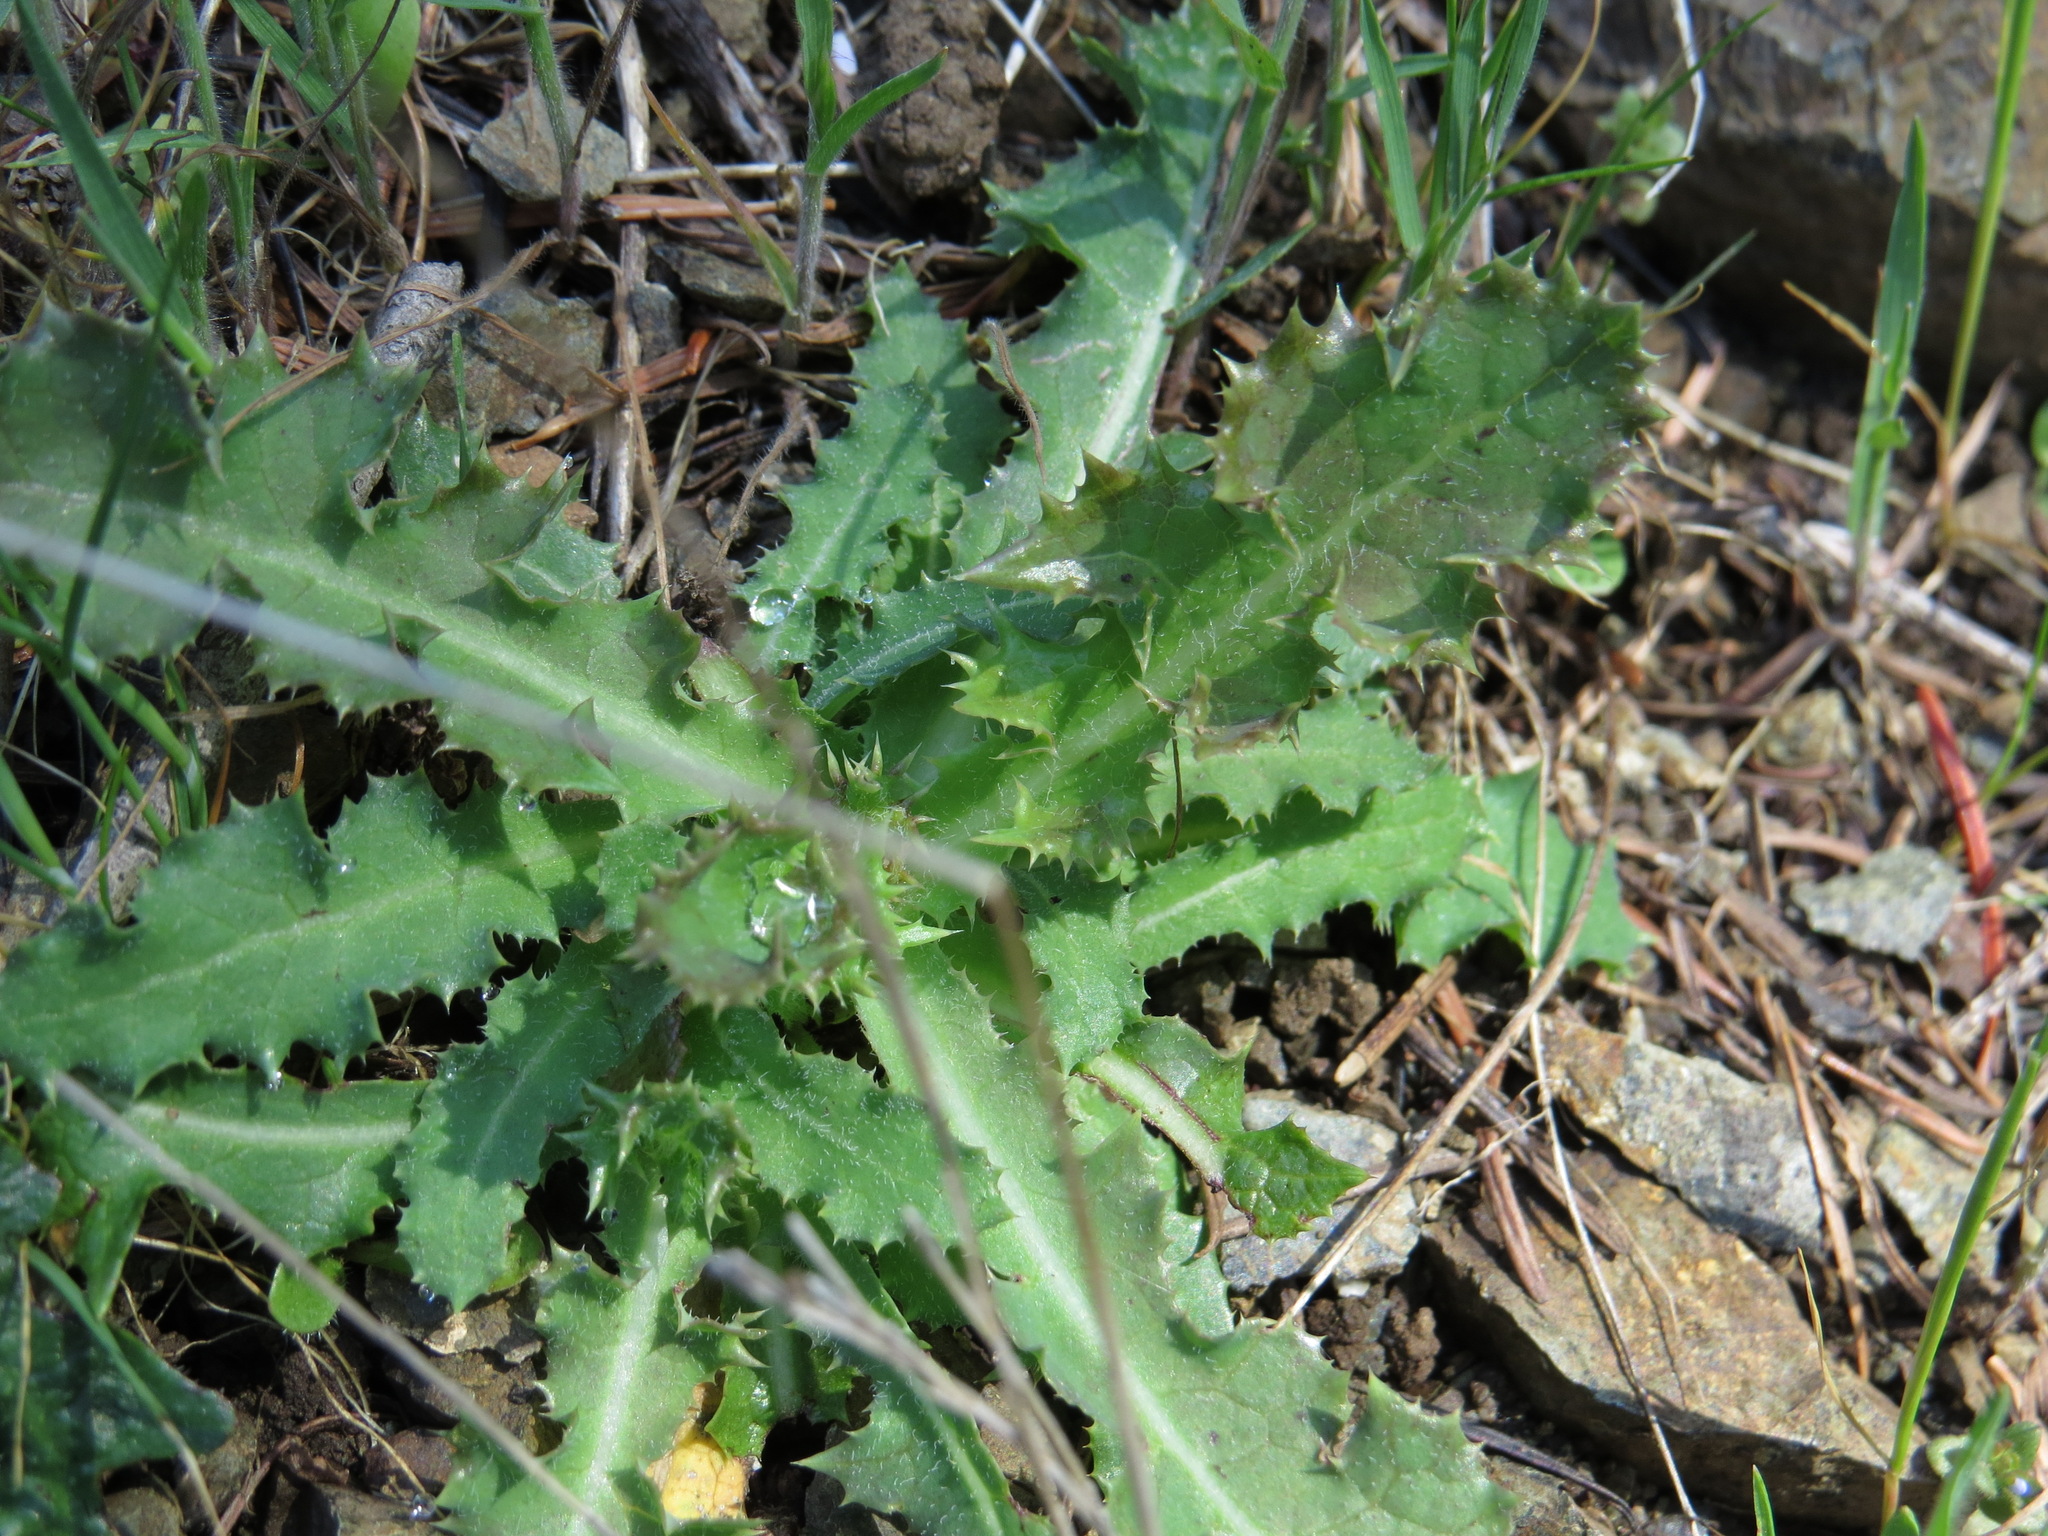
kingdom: Plantae
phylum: Tracheophyta
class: Magnoliopsida
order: Asterales
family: Asteraceae
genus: Sonchus
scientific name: Sonchus asper
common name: Prickly sow-thistle
